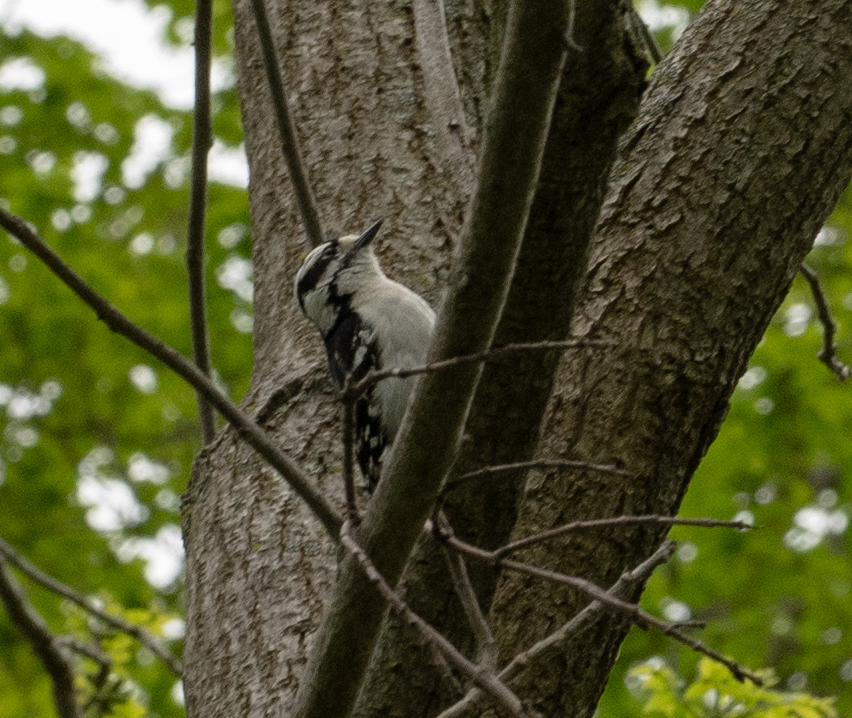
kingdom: Animalia
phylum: Chordata
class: Aves
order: Piciformes
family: Picidae
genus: Dryobates
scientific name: Dryobates pubescens
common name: Downy woodpecker
